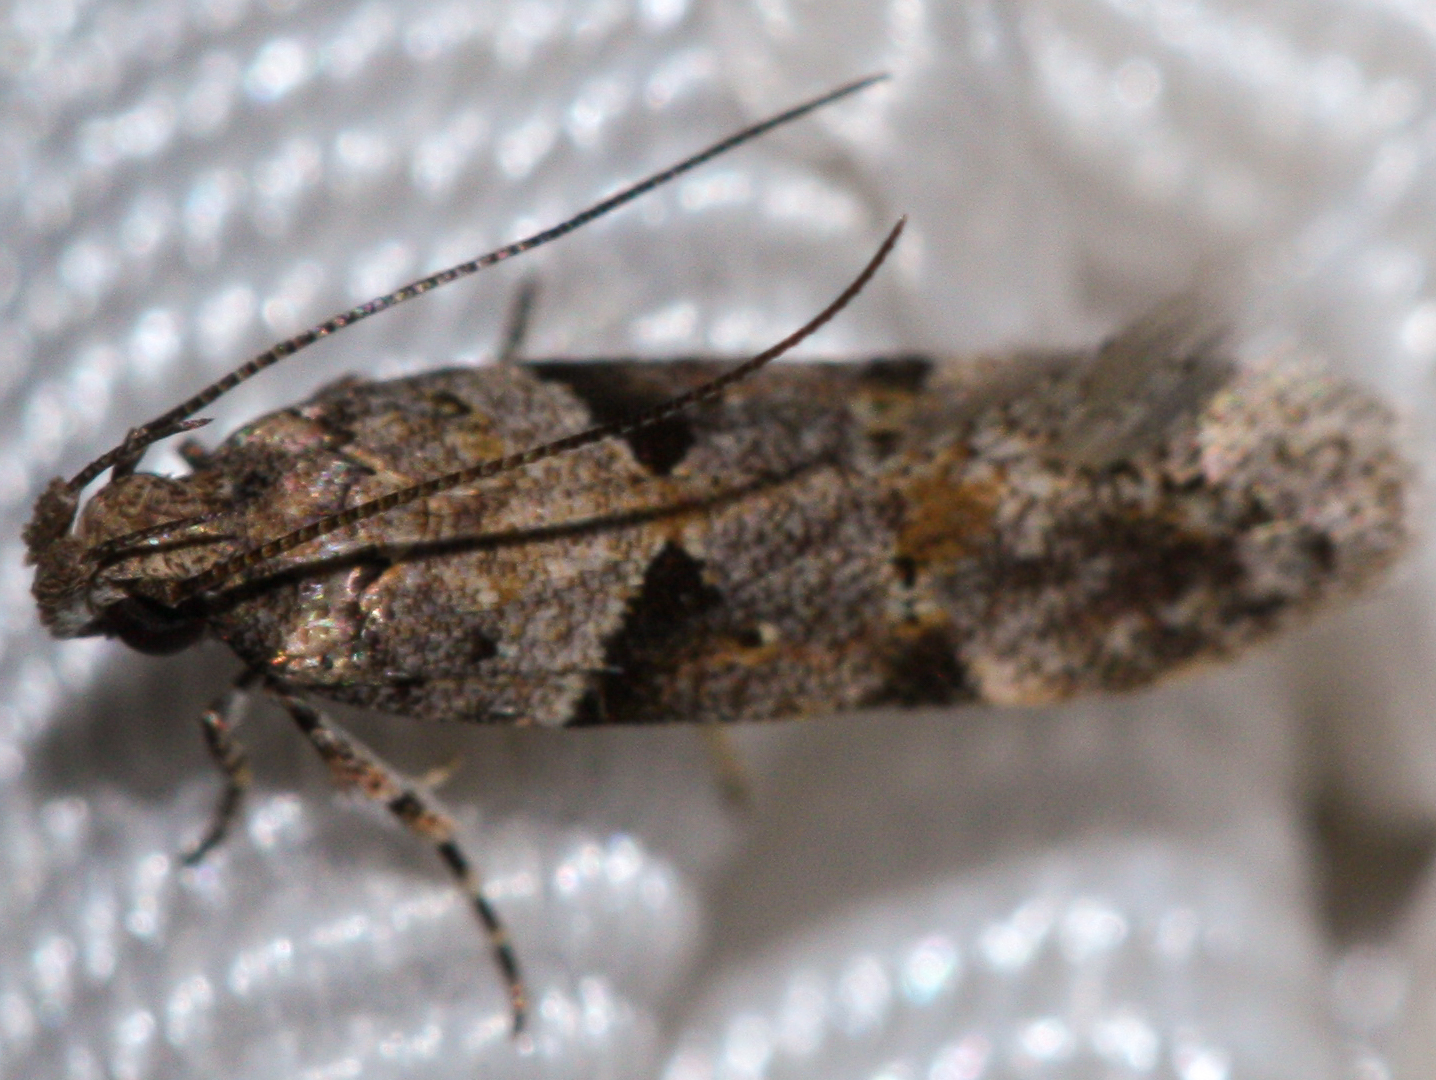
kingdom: Animalia
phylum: Arthropoda
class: Insecta
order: Lepidoptera
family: Gelechiidae
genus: Faculta
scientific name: Faculta inaequalis
